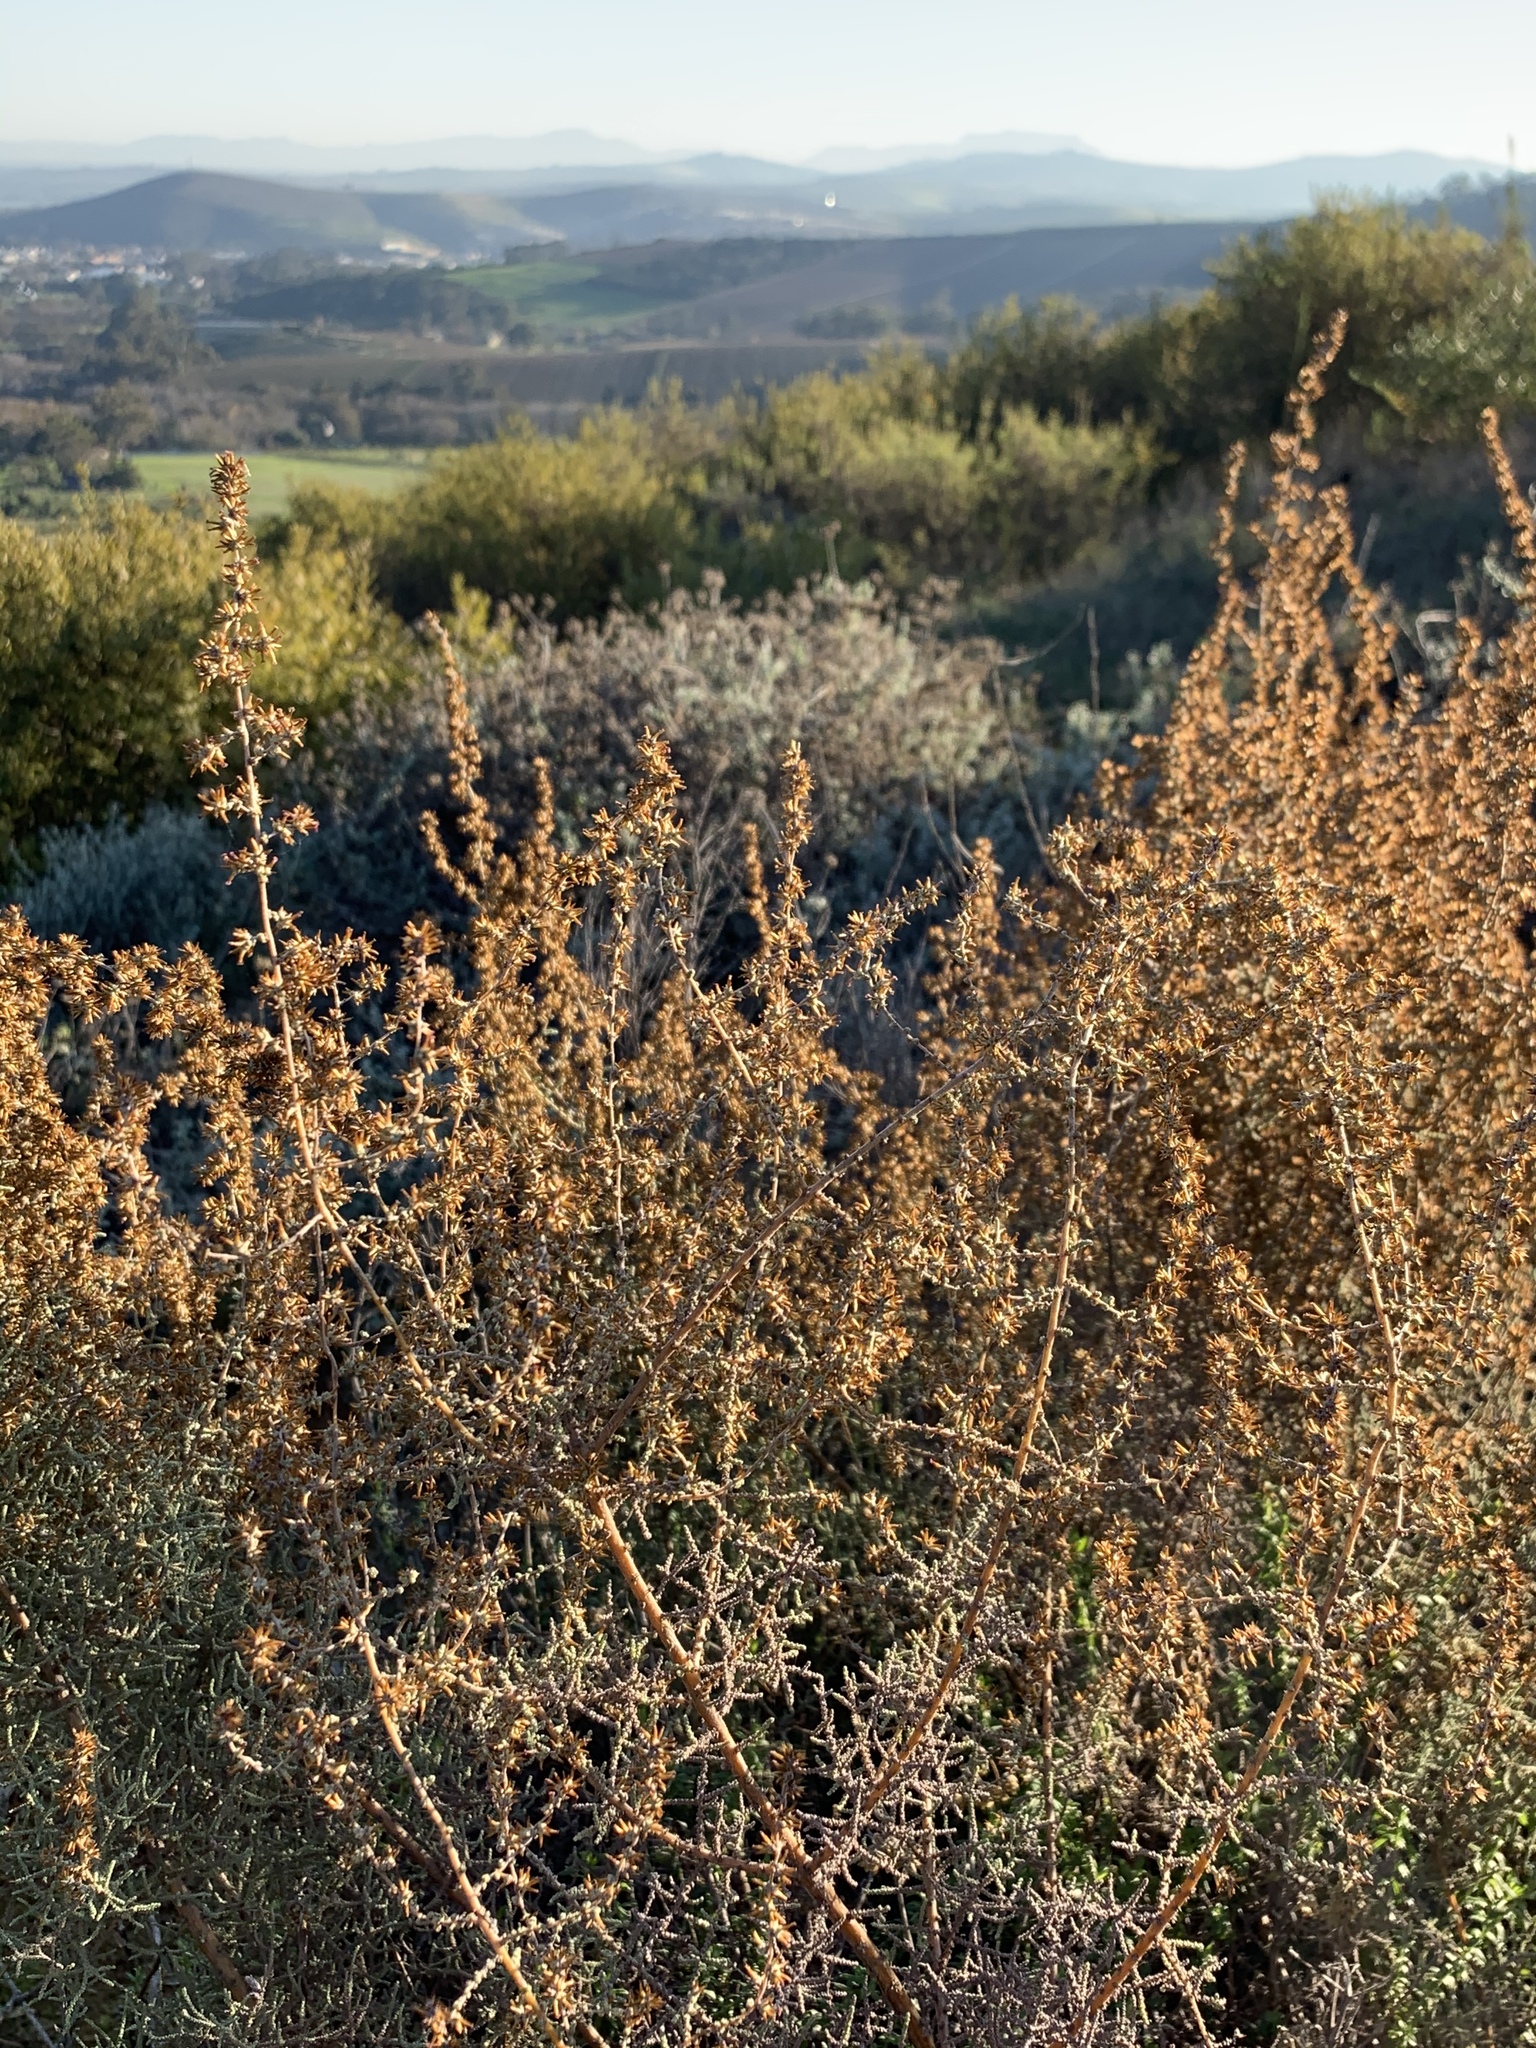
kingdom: Plantae
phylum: Tracheophyta
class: Magnoliopsida
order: Asterales
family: Asteraceae
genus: Seriphium
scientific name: Seriphium plumosum
